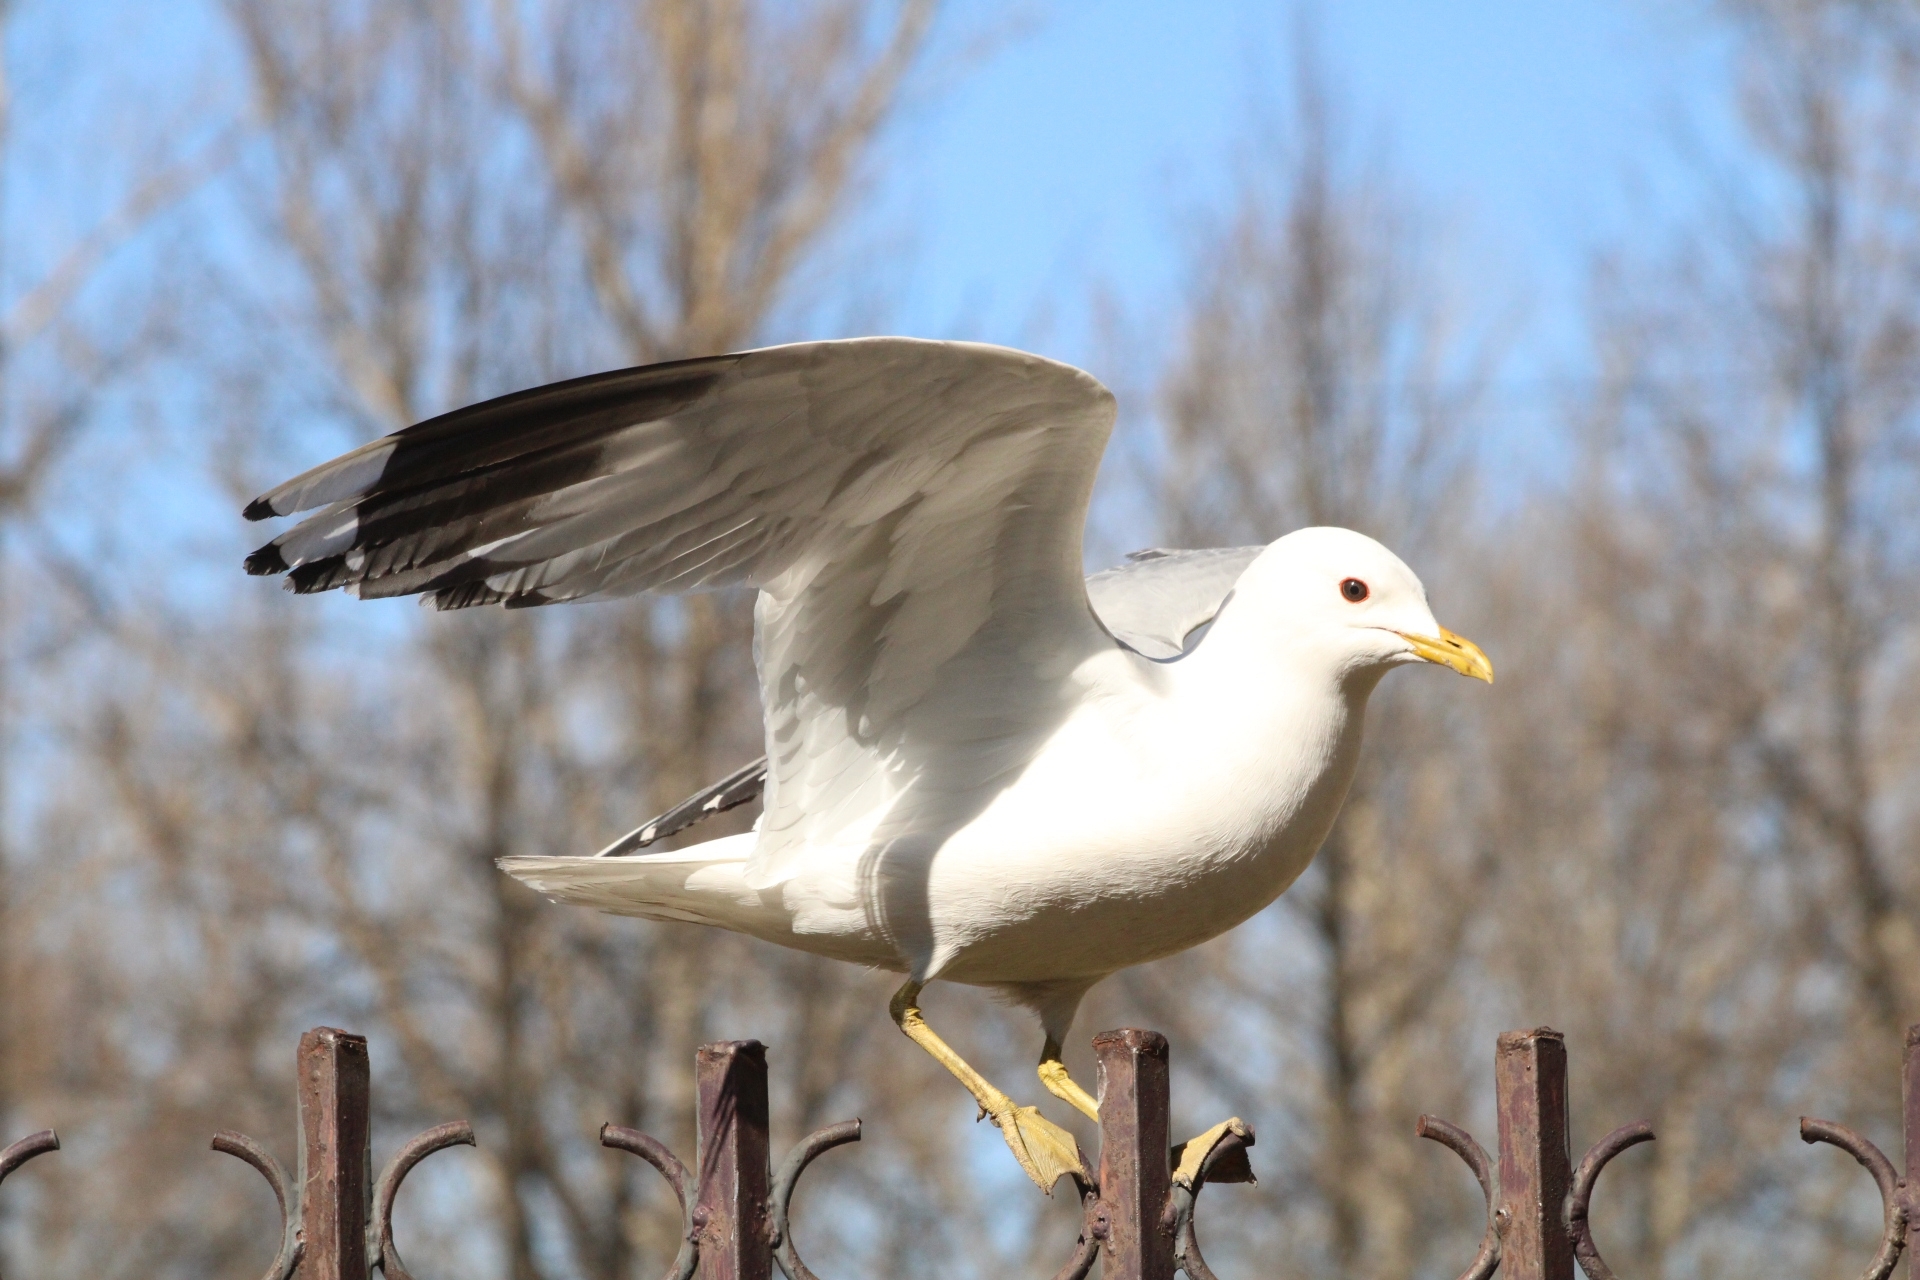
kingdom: Animalia
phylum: Chordata
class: Aves
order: Charadriiformes
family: Laridae
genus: Larus
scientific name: Larus canus
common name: Mew gull
